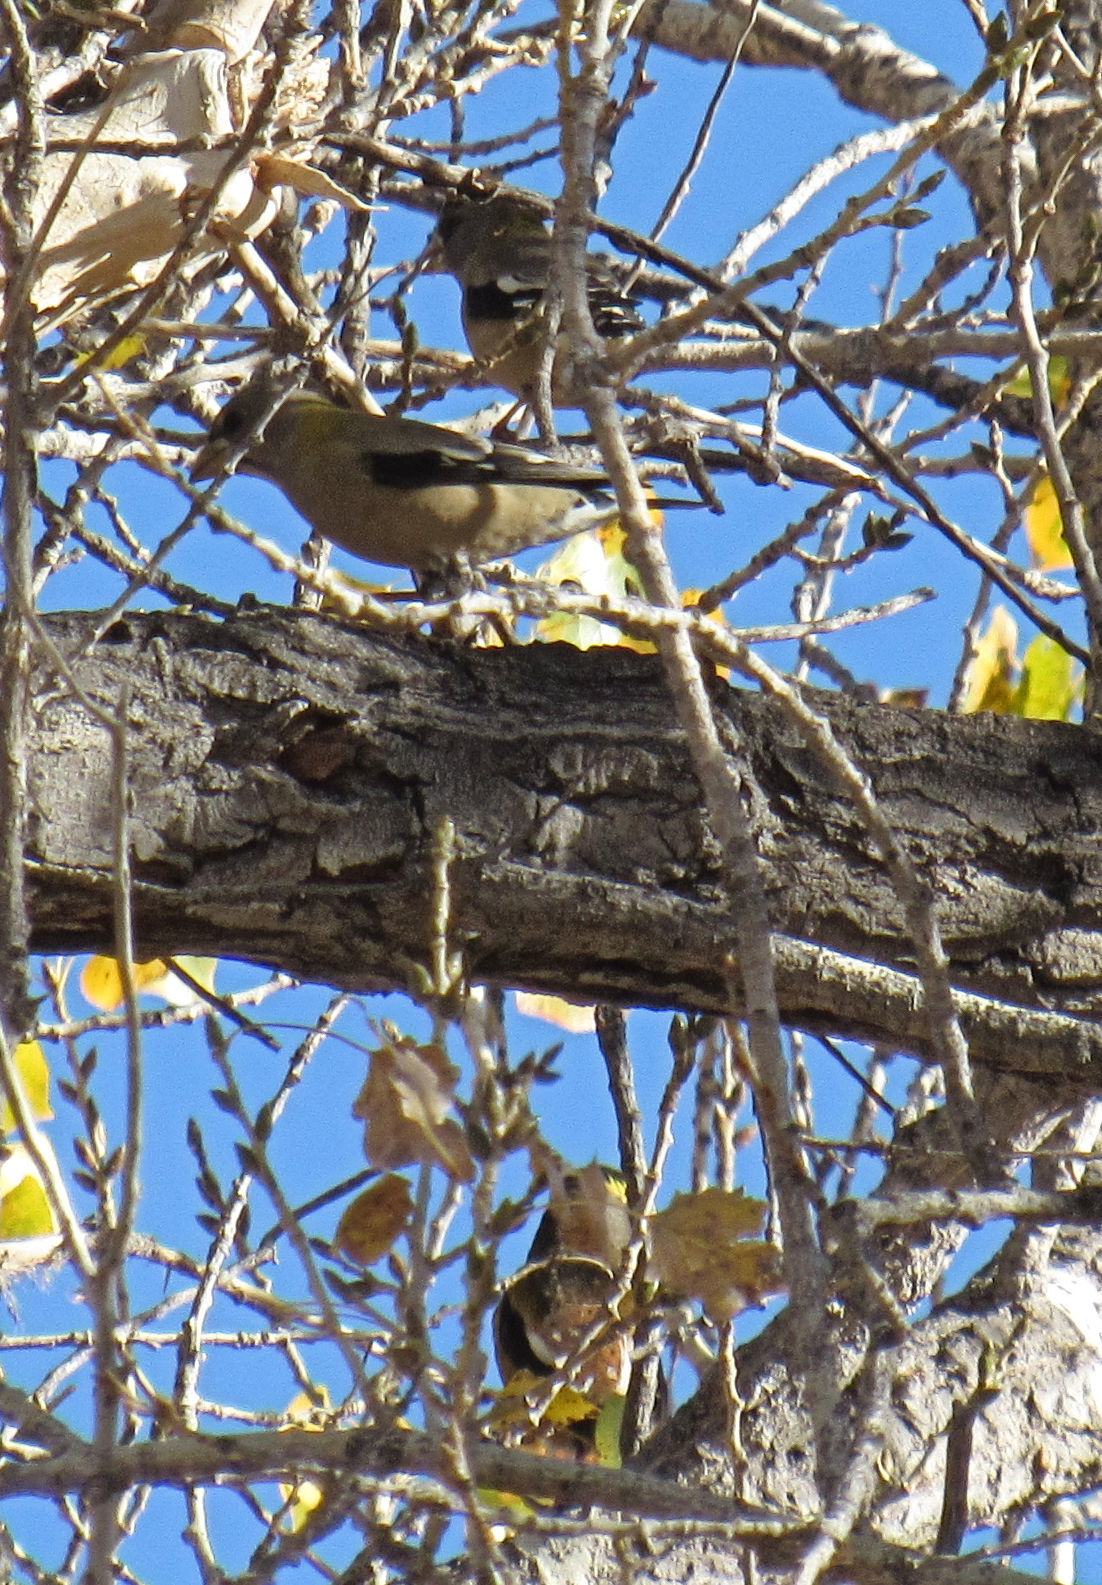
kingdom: Animalia
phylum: Chordata
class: Aves
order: Passeriformes
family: Fringillidae
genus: Hesperiphona
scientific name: Hesperiphona vespertina
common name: Evening grosbeak
